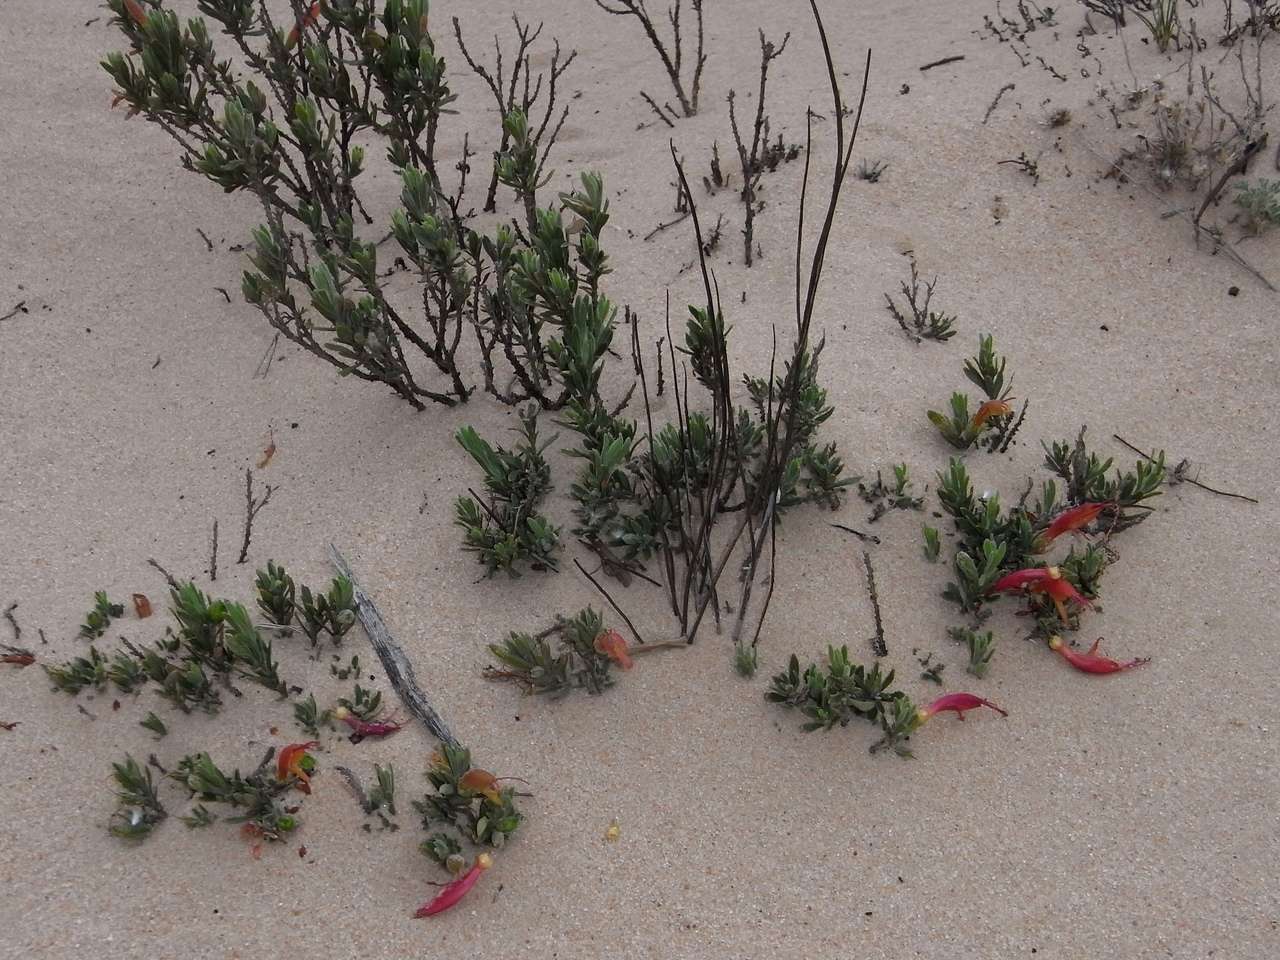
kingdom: Plantae
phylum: Tracheophyta
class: Magnoliopsida
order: Lamiales
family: Scrophulariaceae
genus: Eremophila
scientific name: Eremophila glabra
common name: Black-fuchsia
